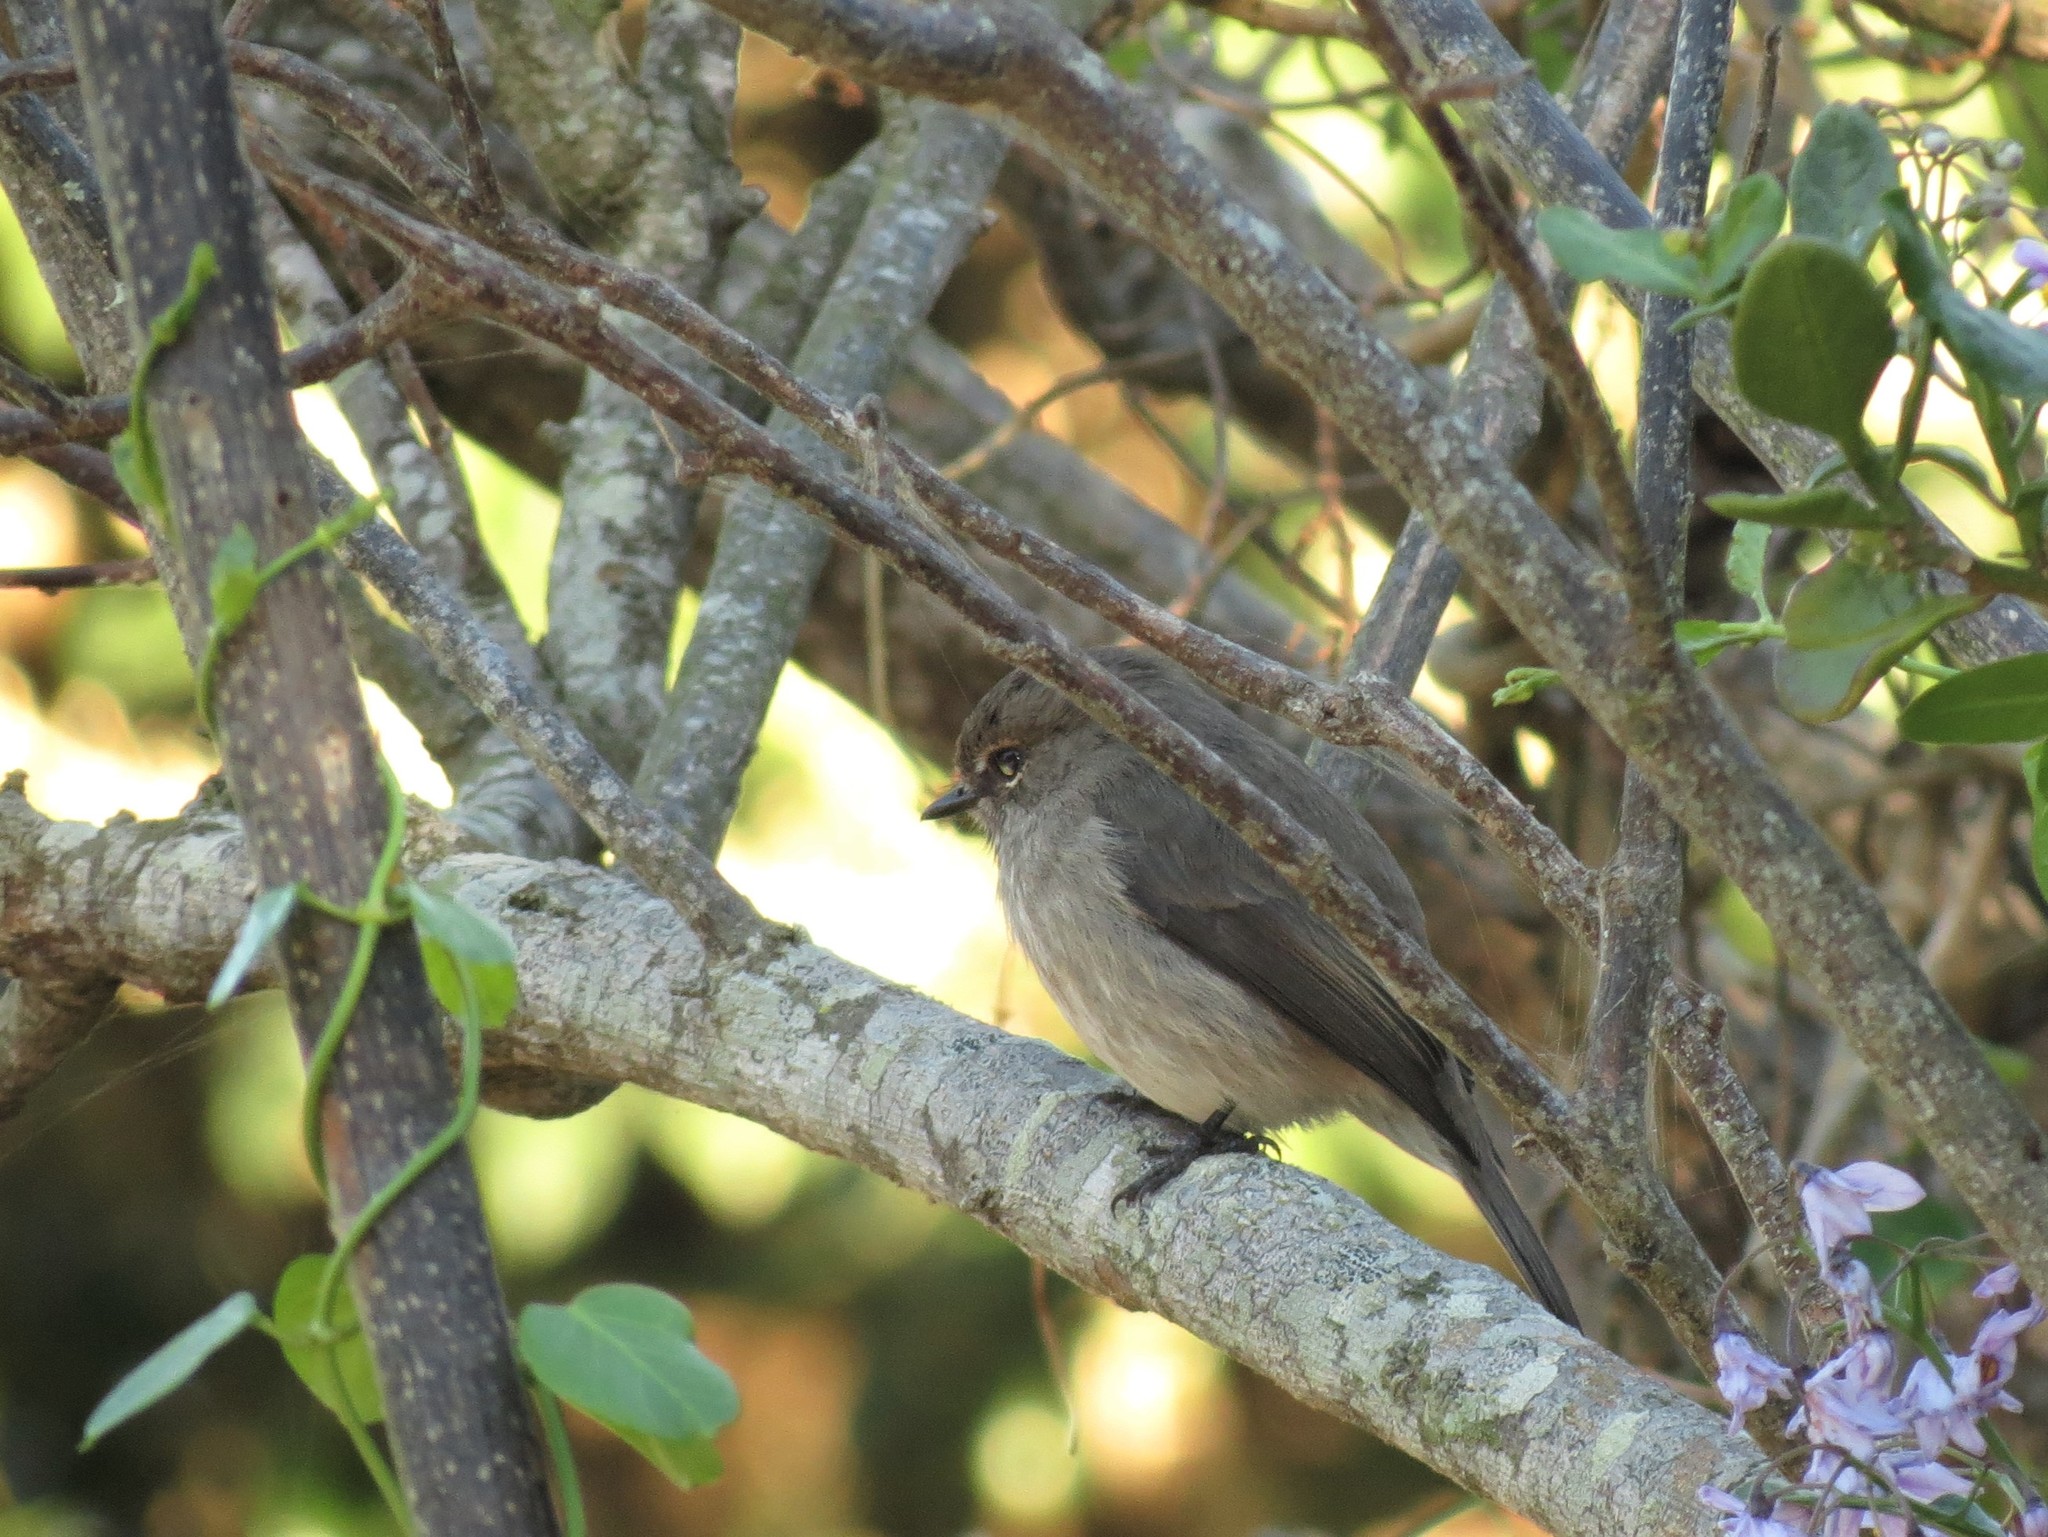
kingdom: Animalia
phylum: Chordata
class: Aves
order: Passeriformes
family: Muscicapidae
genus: Muscicapa
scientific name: Muscicapa adusta
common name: African dusky flycatcher
